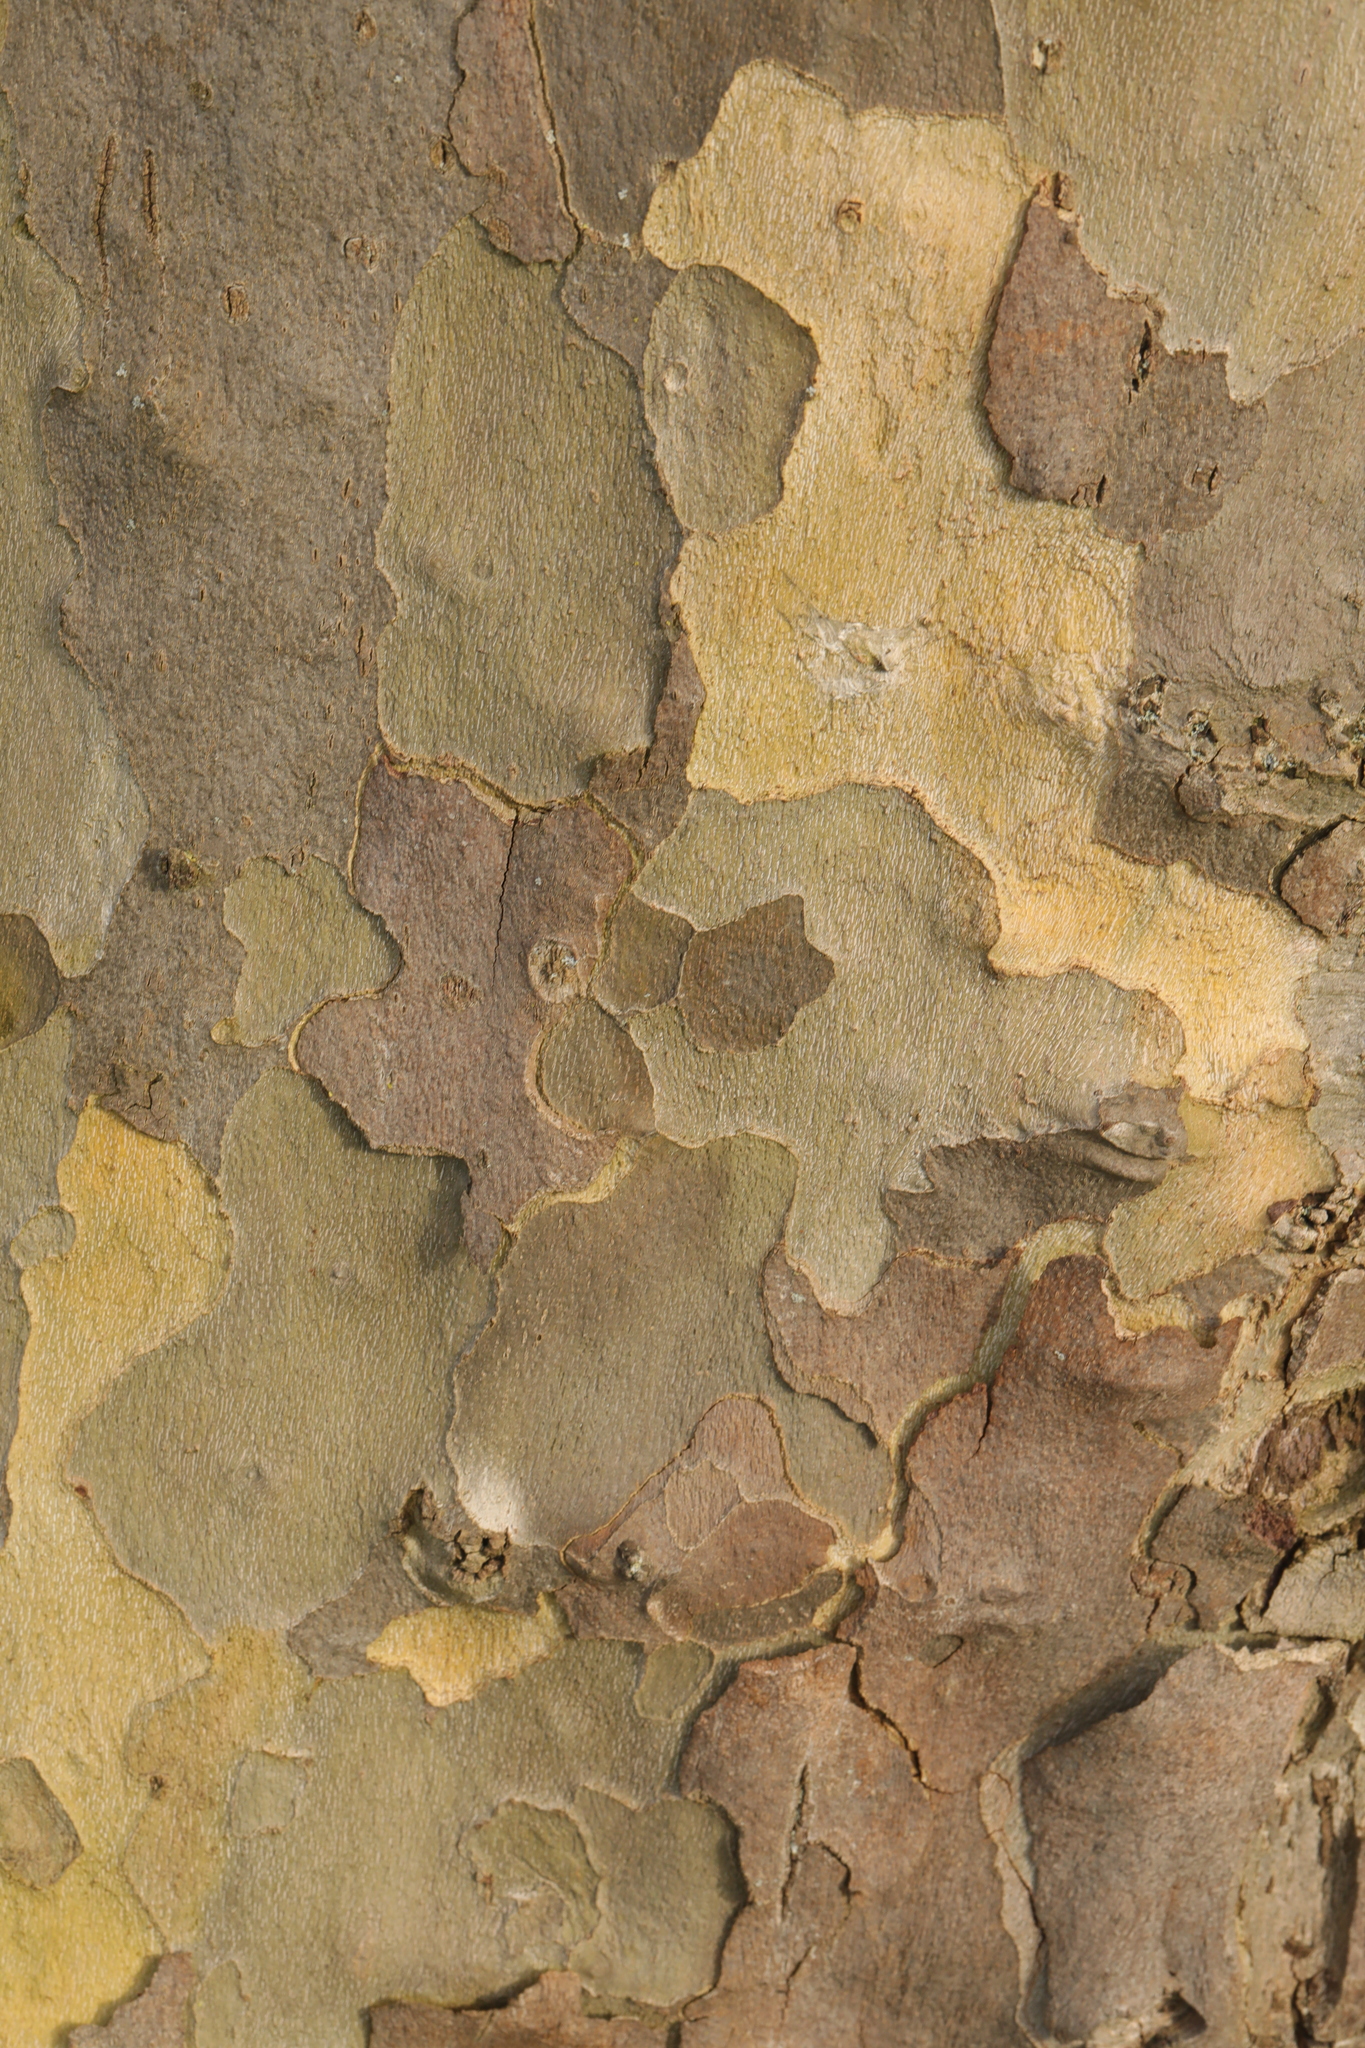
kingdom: Plantae
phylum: Tracheophyta
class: Magnoliopsida
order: Proteales
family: Platanaceae
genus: Platanus
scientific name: Platanus hispanica
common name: London plane
